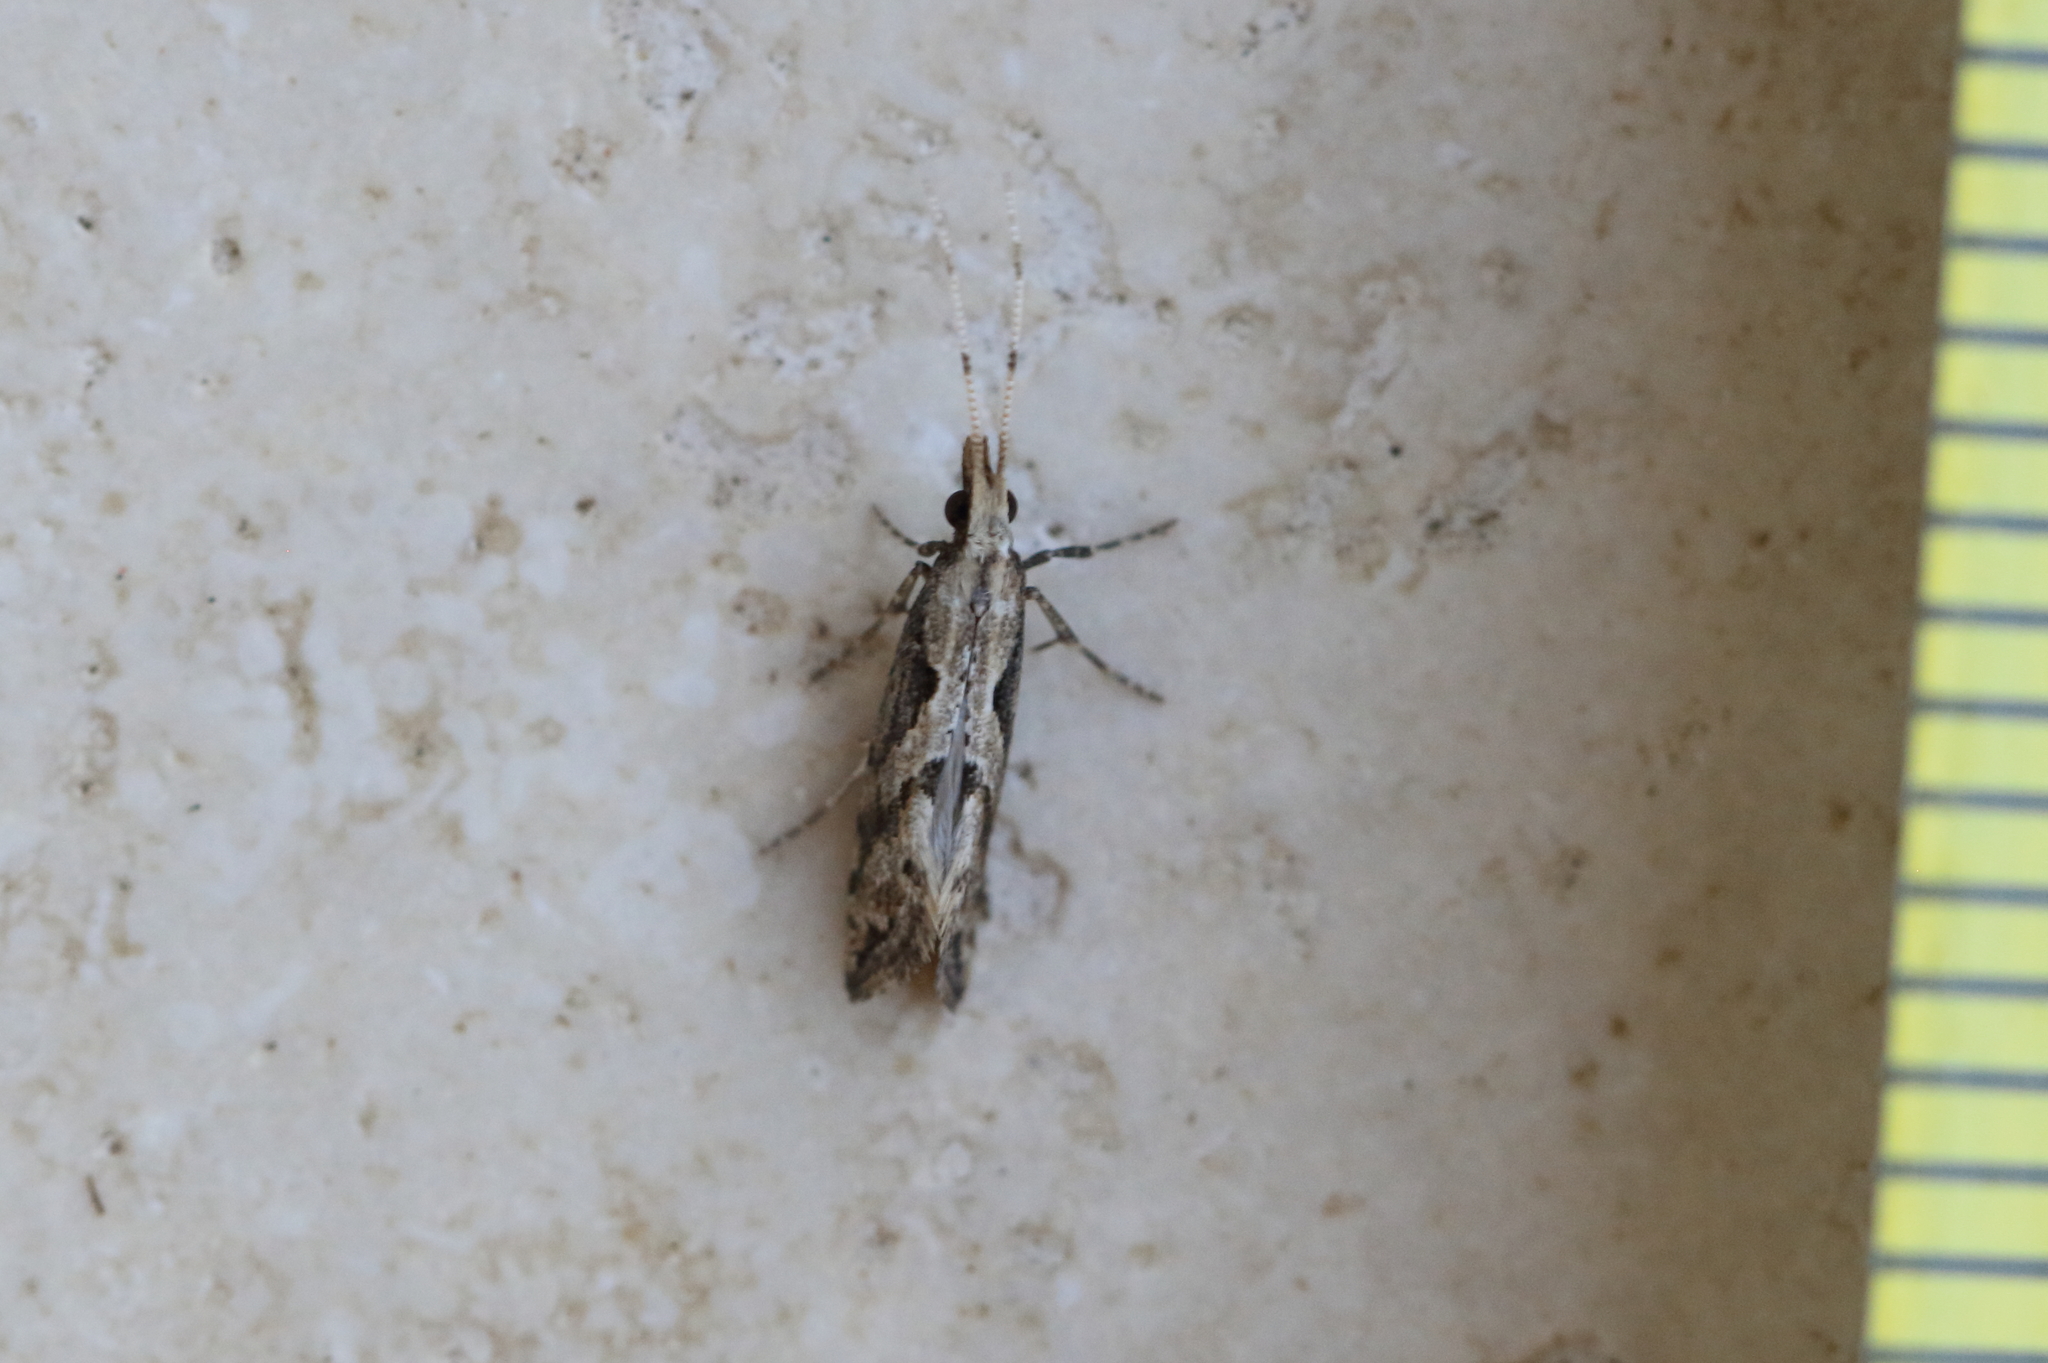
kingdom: Animalia
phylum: Arthropoda
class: Insecta
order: Lepidoptera
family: Plutellidae
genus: Leuroperna
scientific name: Leuroperna sera
